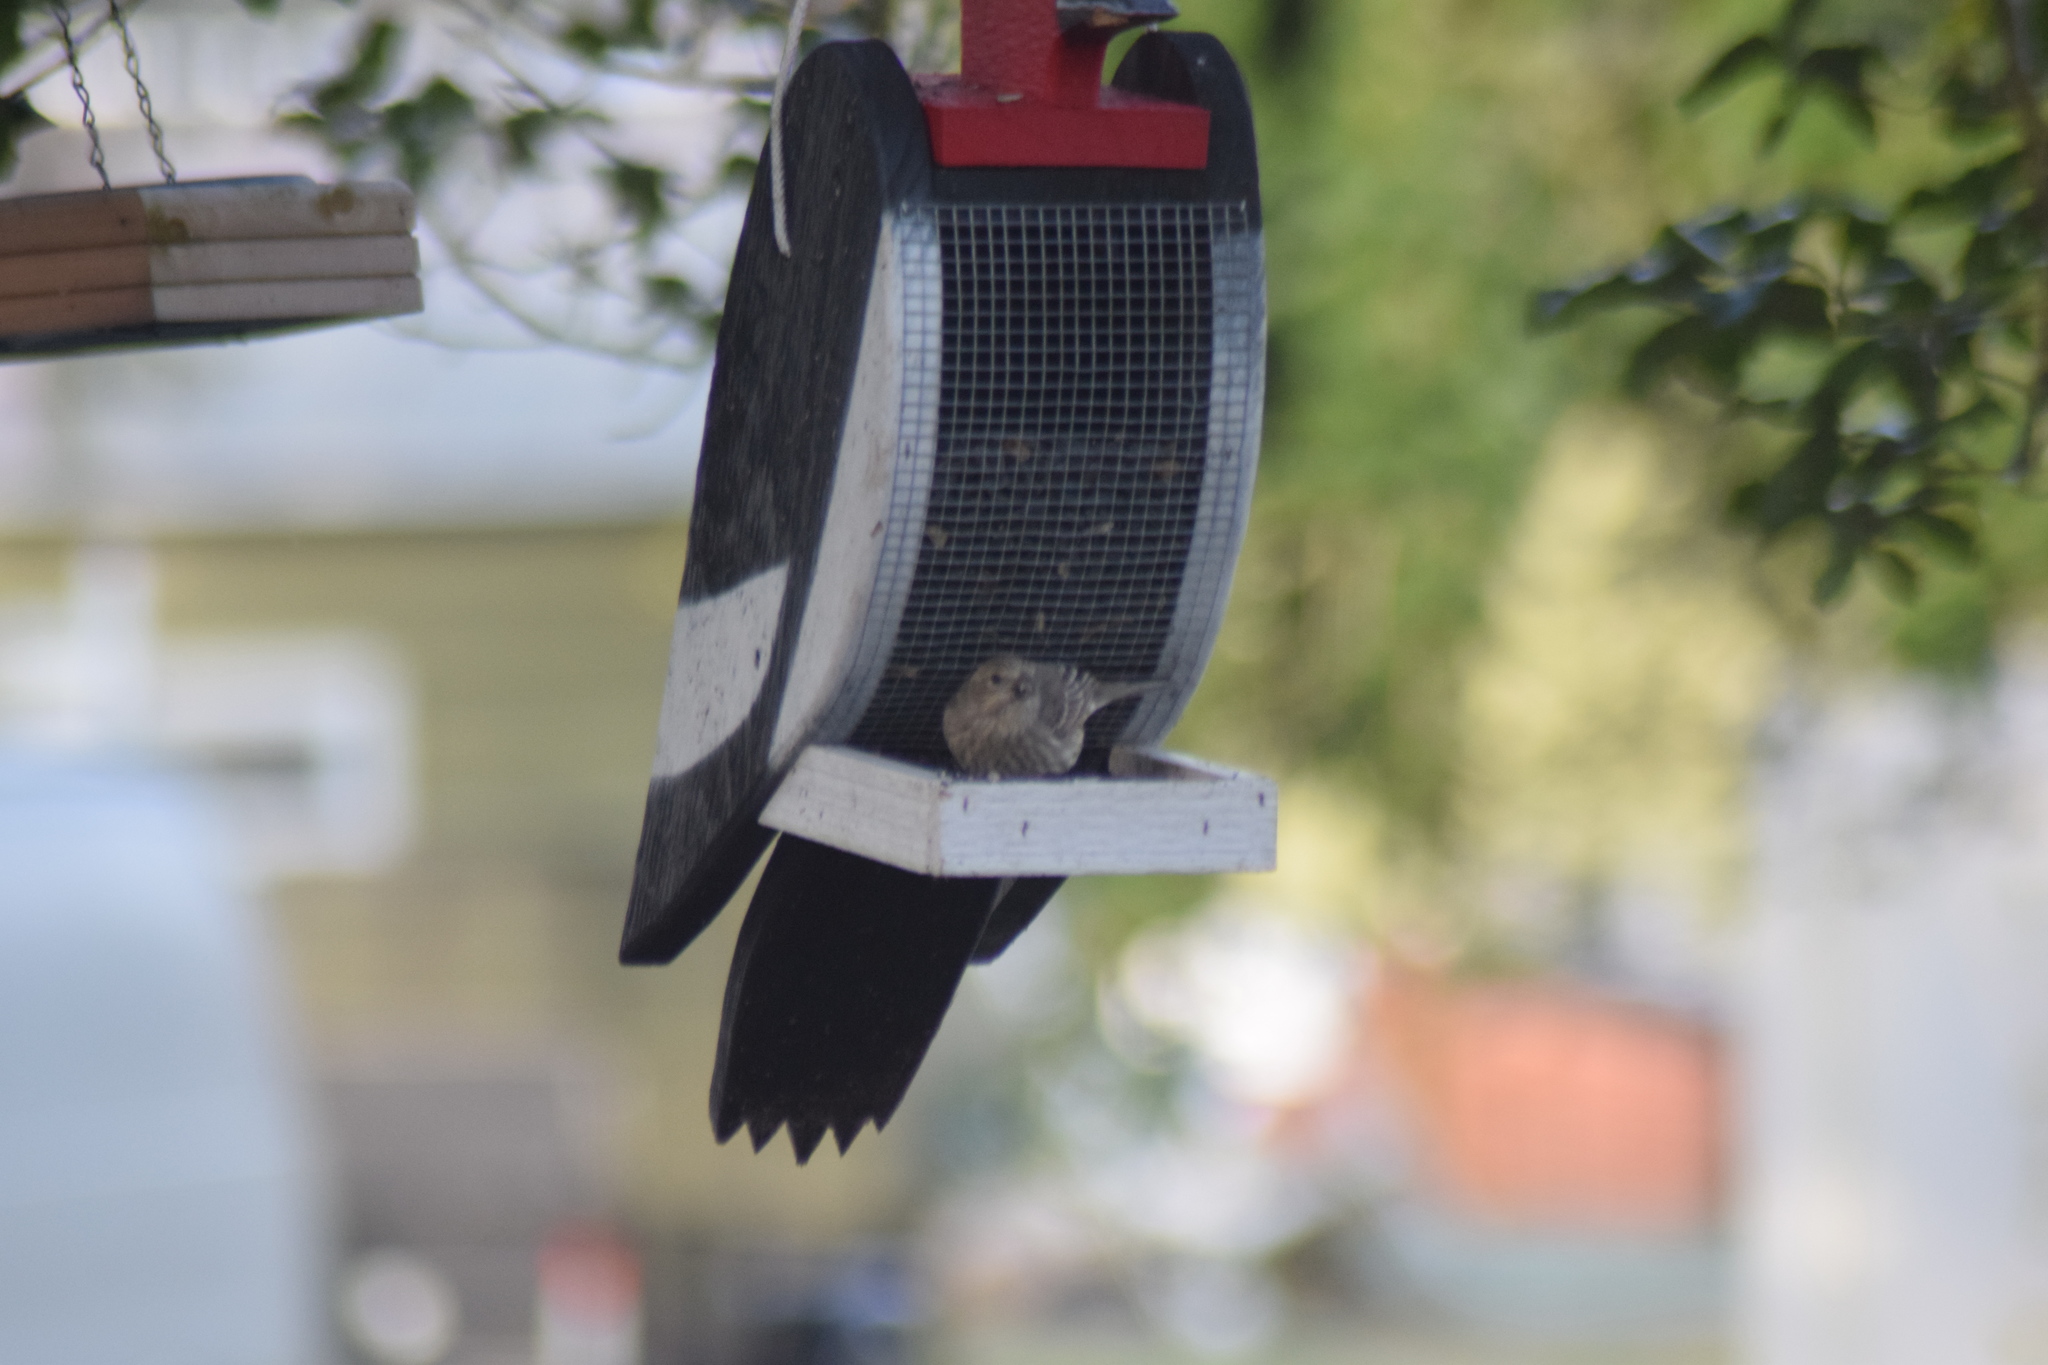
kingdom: Animalia
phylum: Chordata
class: Aves
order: Passeriformes
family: Fringillidae
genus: Haemorhous
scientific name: Haemorhous mexicanus
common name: House finch
